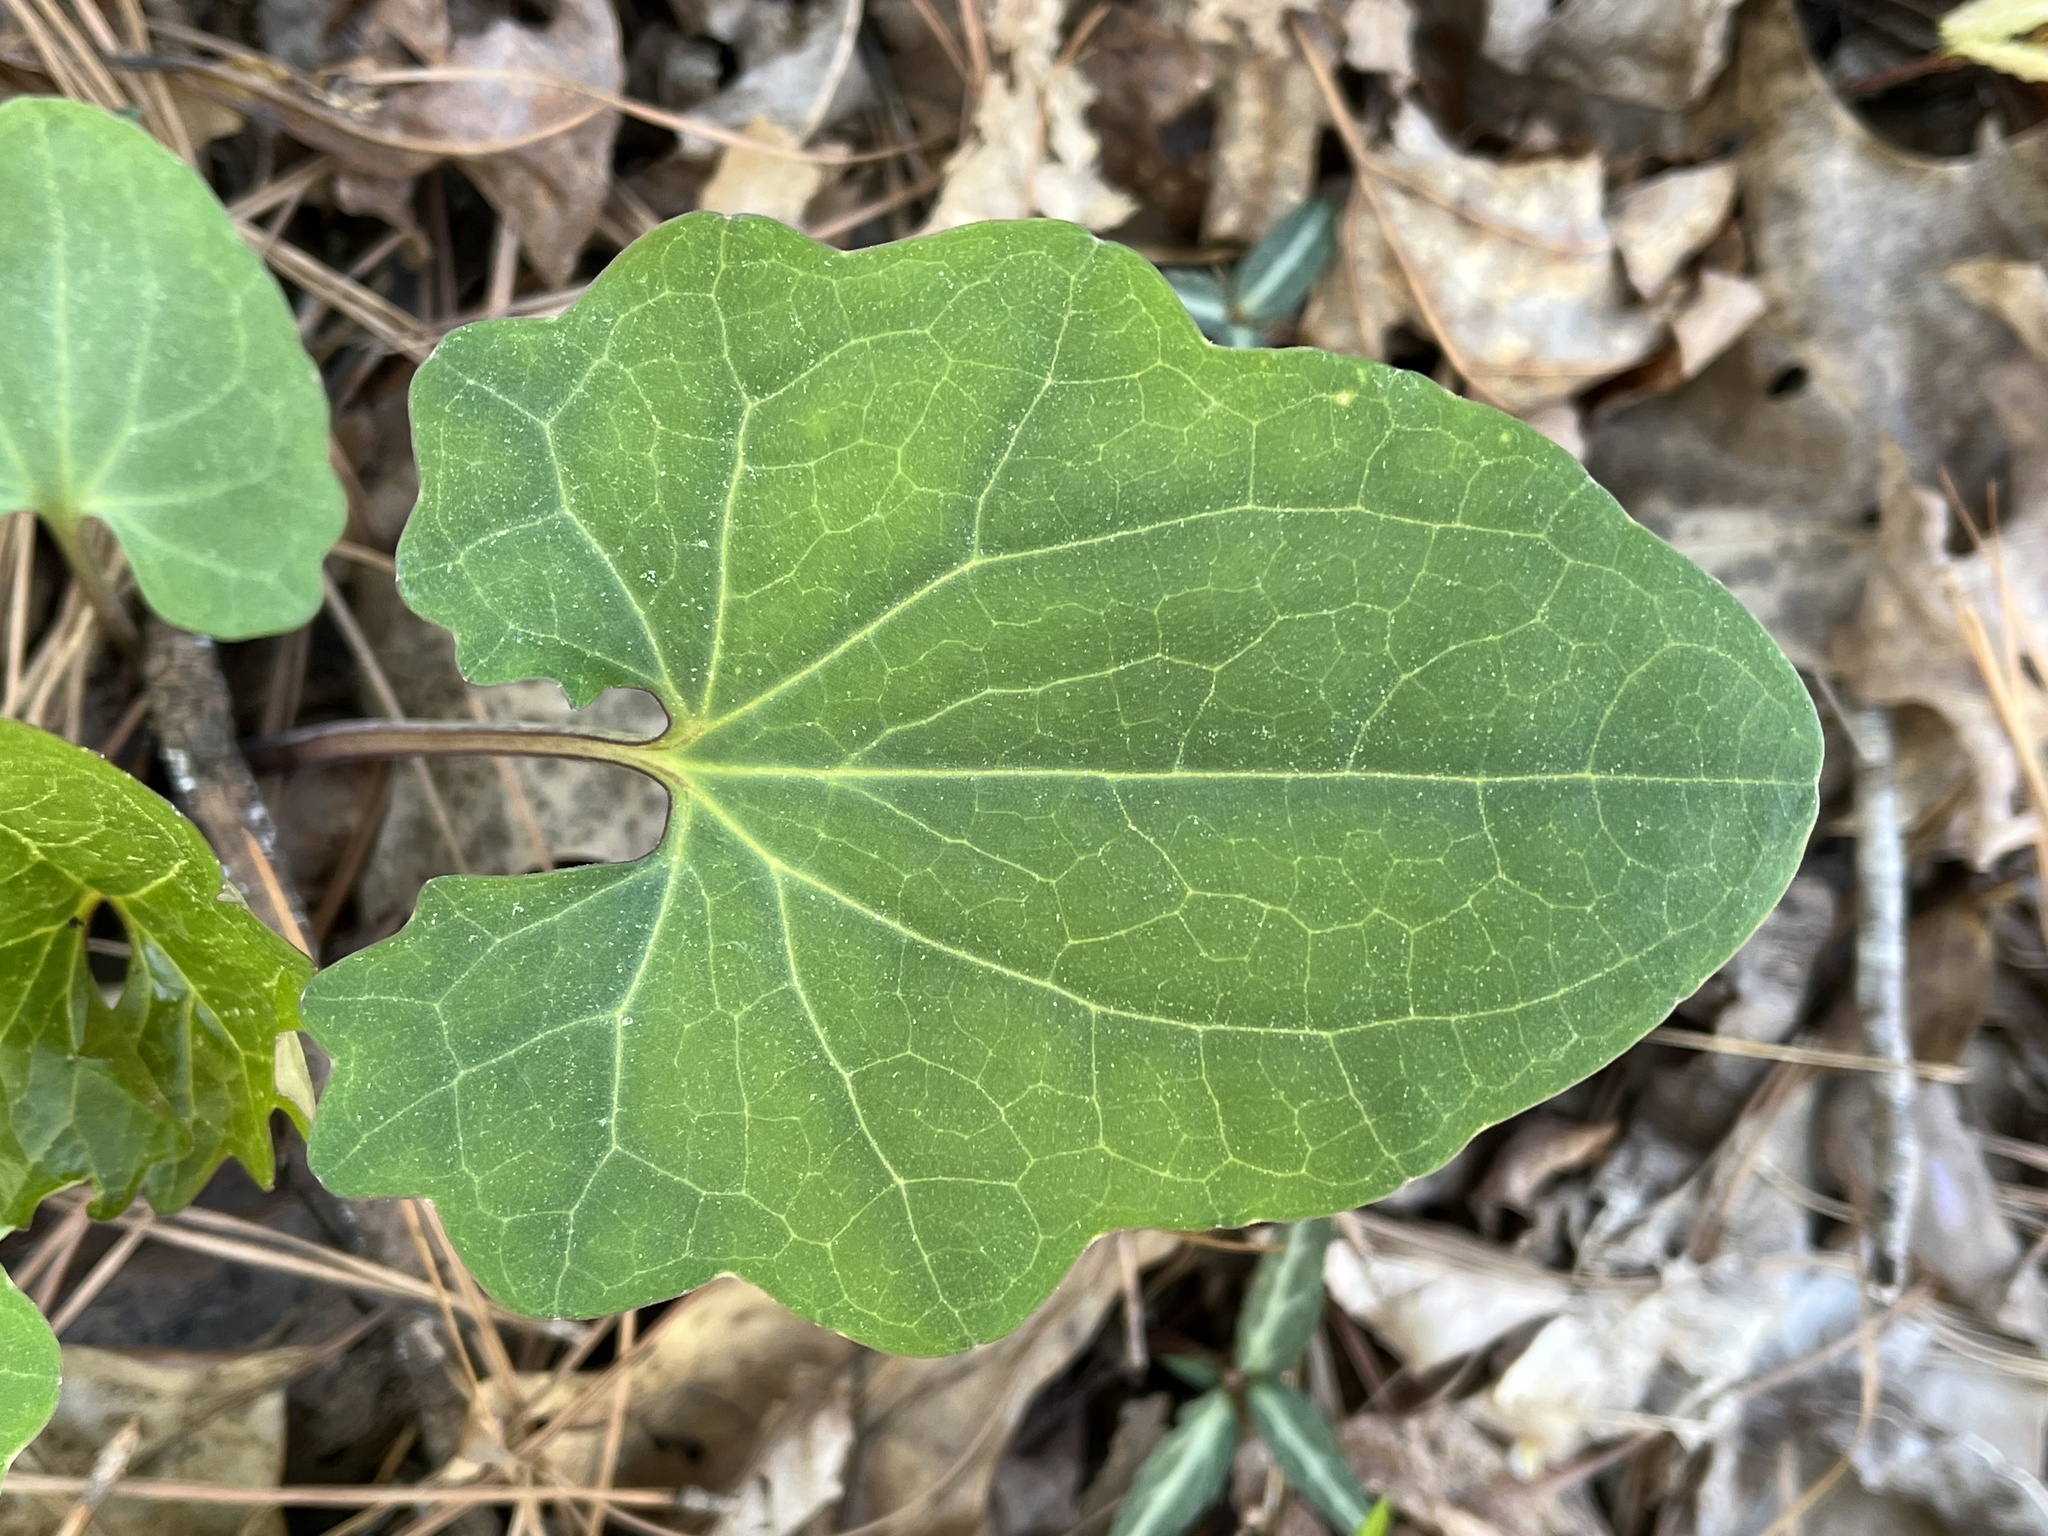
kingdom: Plantae
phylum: Tracheophyta
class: Magnoliopsida
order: Asterales
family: Asteraceae
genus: Arnoglossum
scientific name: Arnoglossum atriplicifolium
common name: Pale indian-plantain
